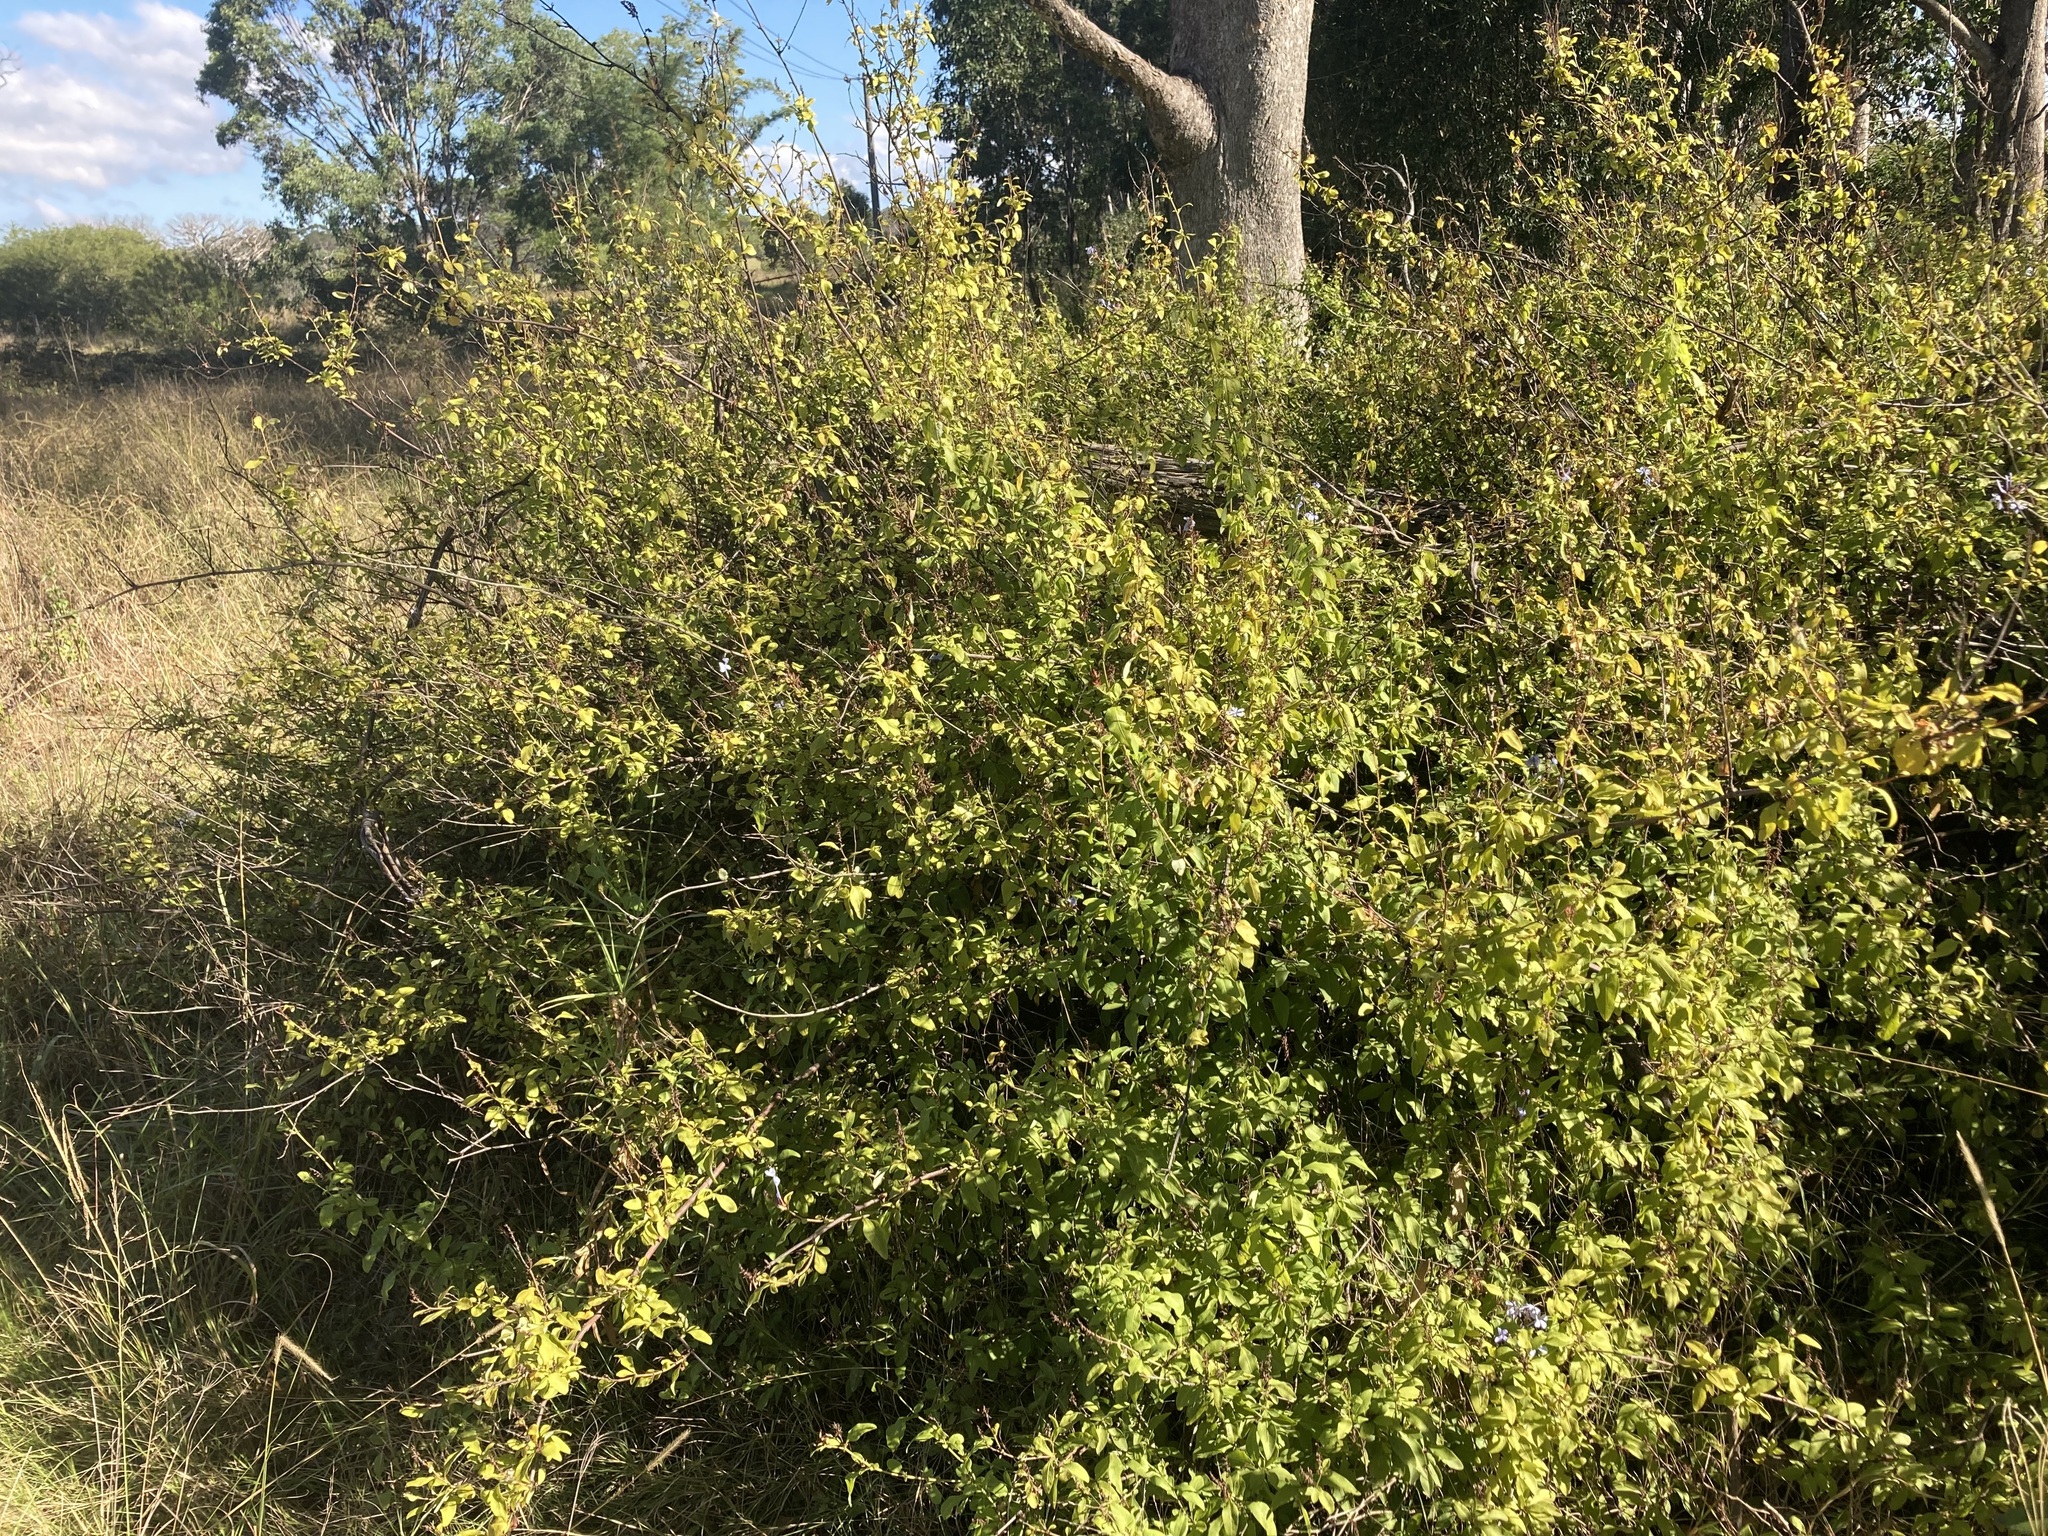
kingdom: Plantae
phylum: Tracheophyta
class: Magnoliopsida
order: Caryophyllales
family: Plumbaginaceae
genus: Plumbago
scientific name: Plumbago auriculata
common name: Cape leadwort
